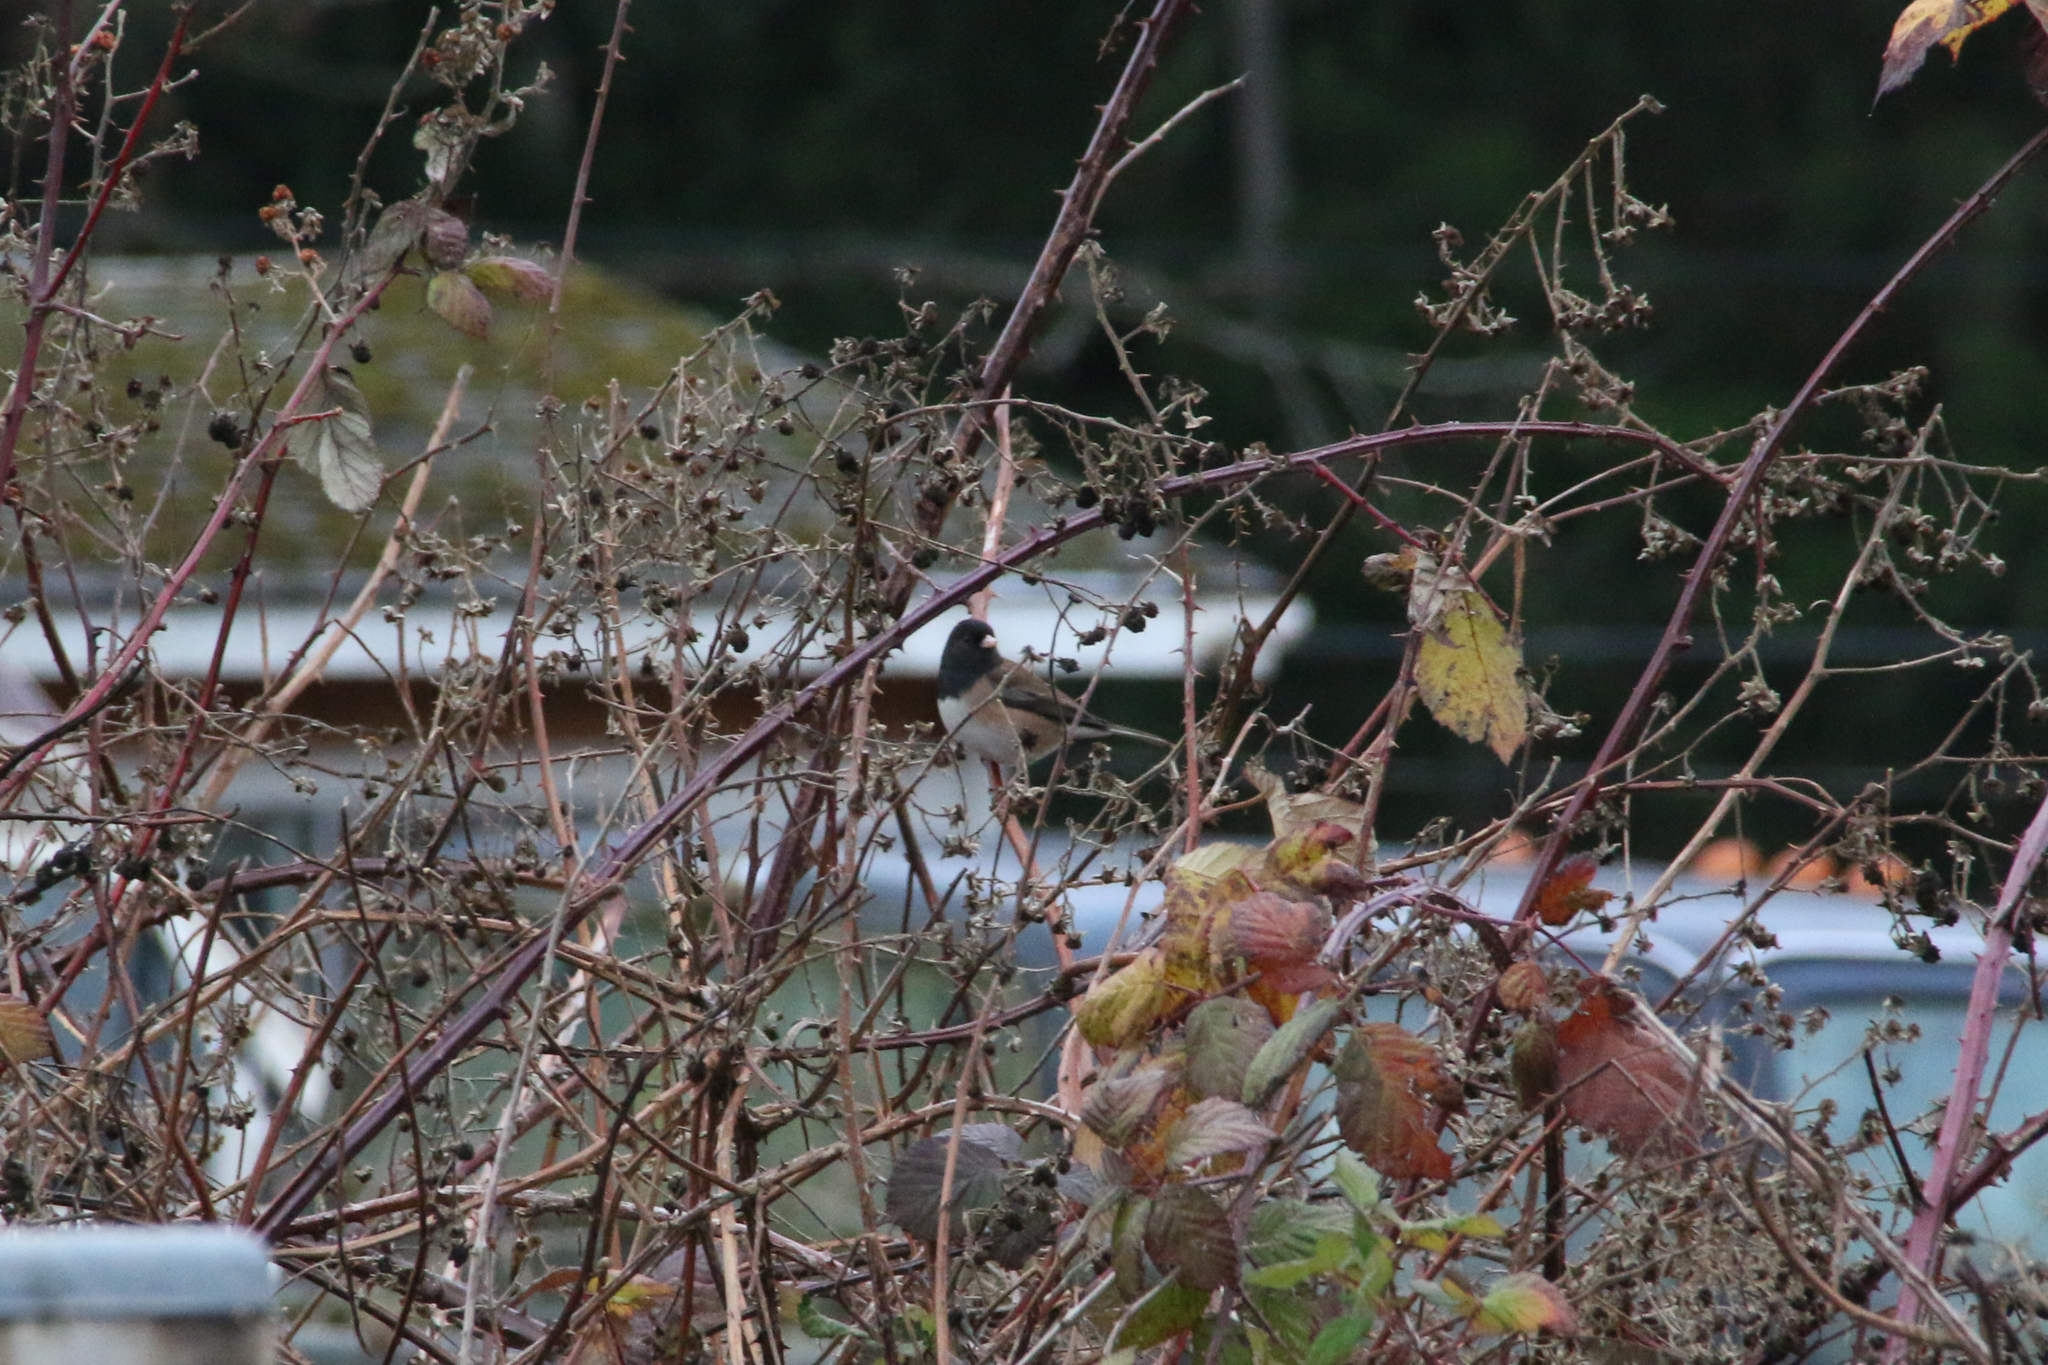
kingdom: Animalia
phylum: Chordata
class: Aves
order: Passeriformes
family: Passerellidae
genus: Junco
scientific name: Junco hyemalis
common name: Dark-eyed junco
